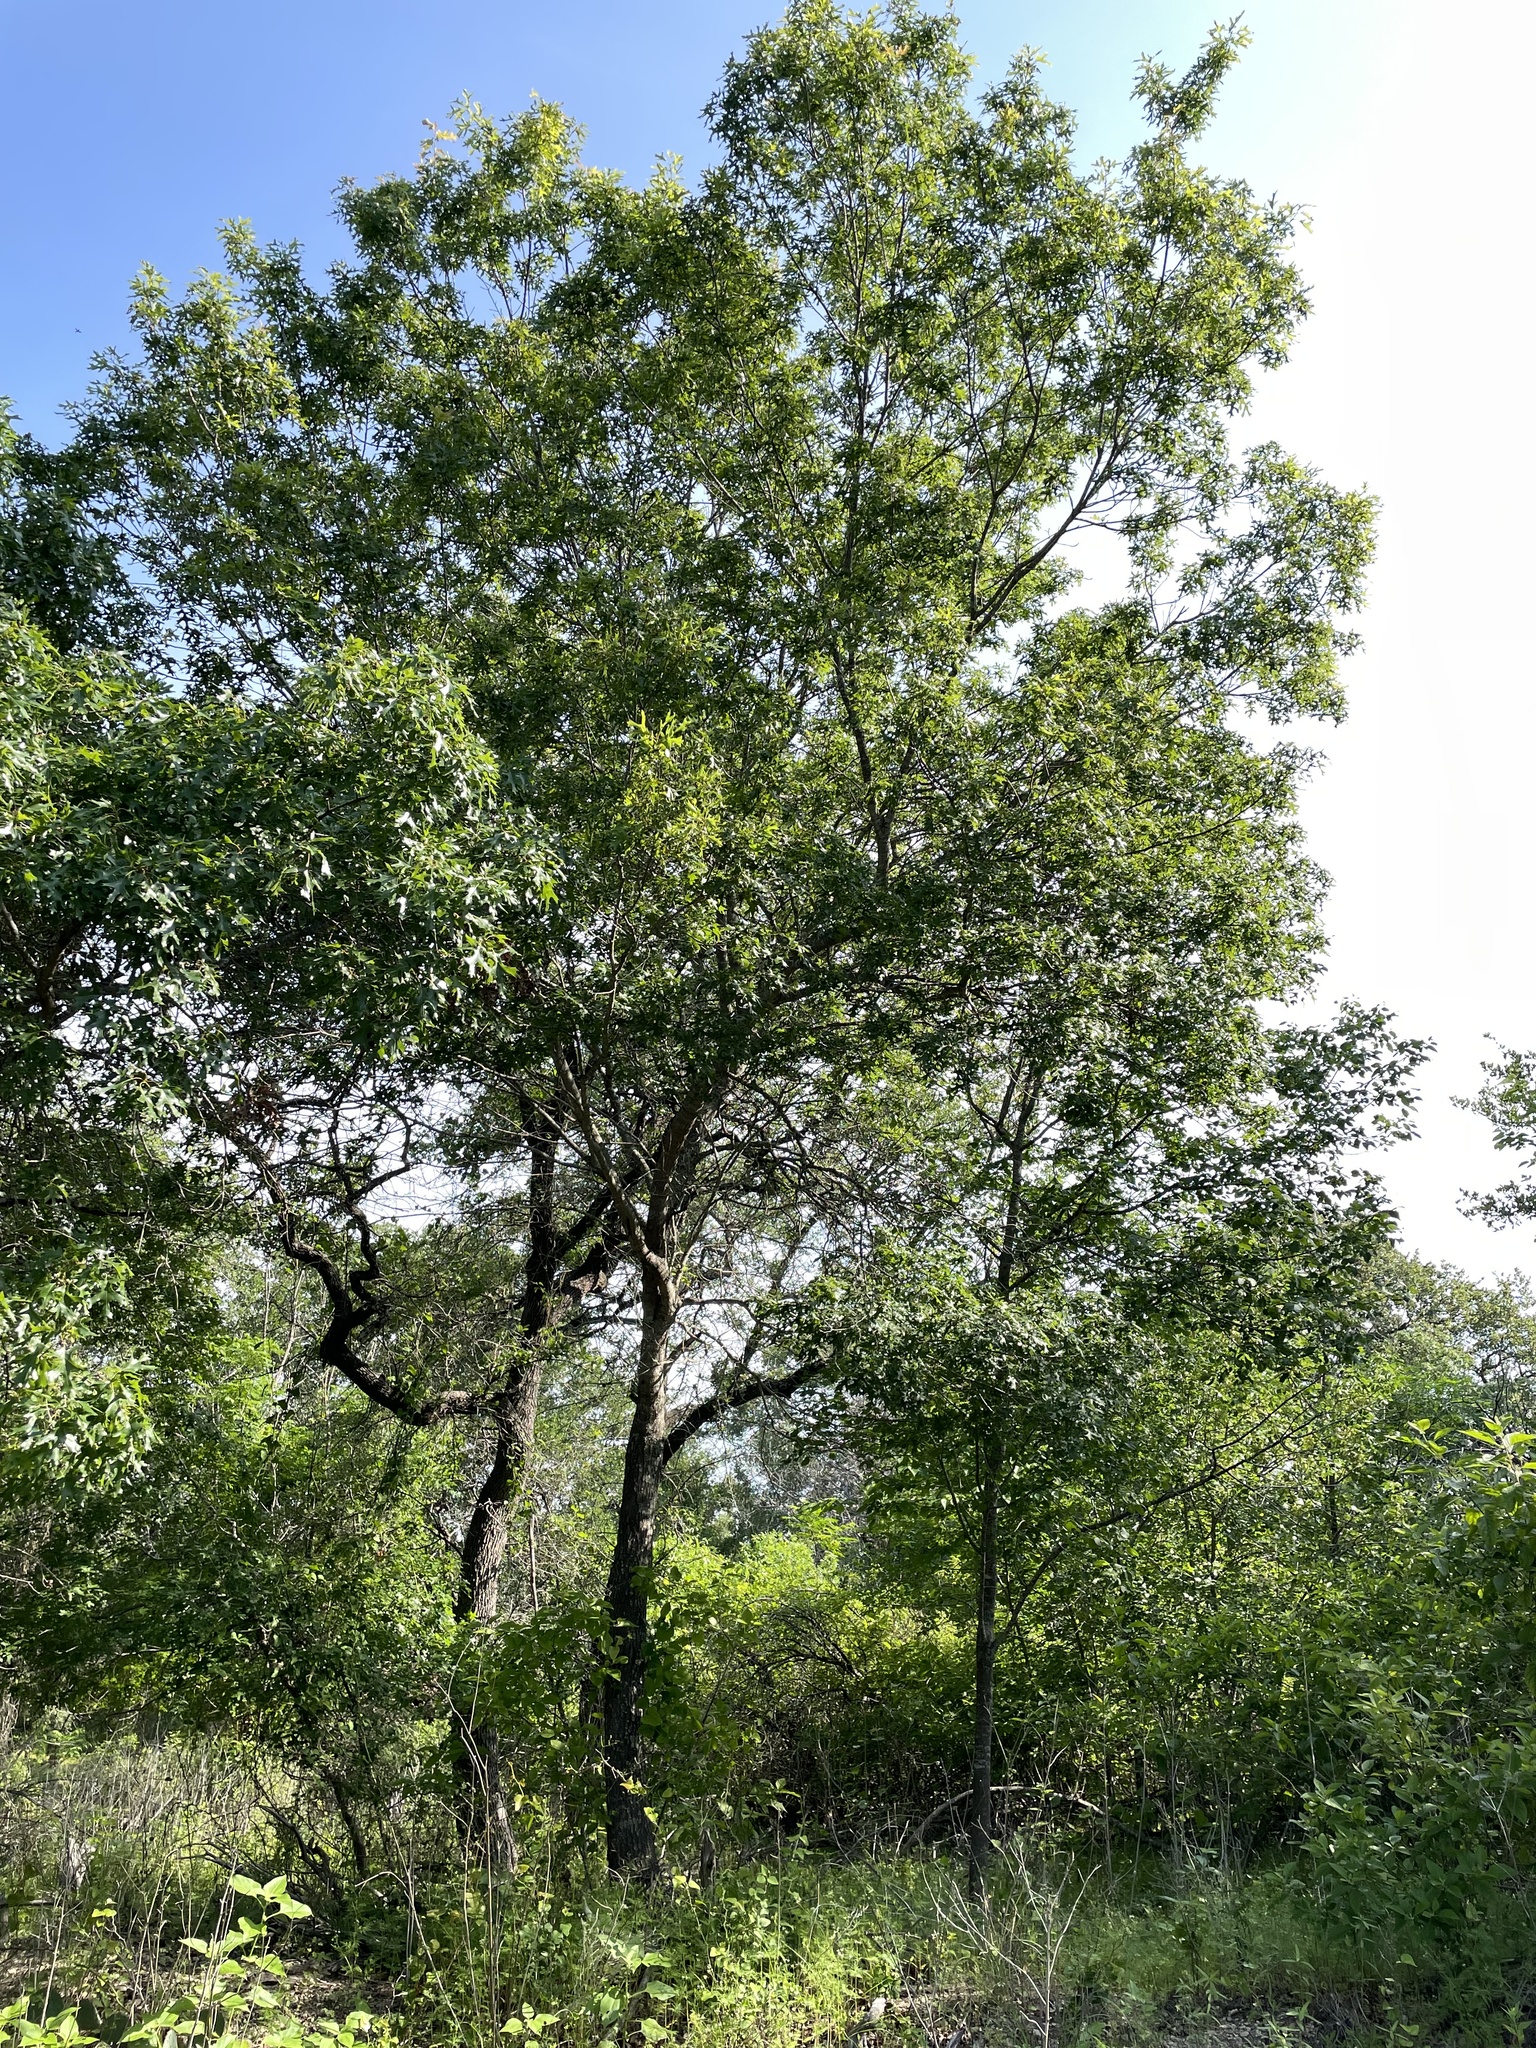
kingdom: Plantae
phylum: Tracheophyta
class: Magnoliopsida
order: Fagales
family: Fagaceae
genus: Quercus
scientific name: Quercus buckleyi
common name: Buckley oak
